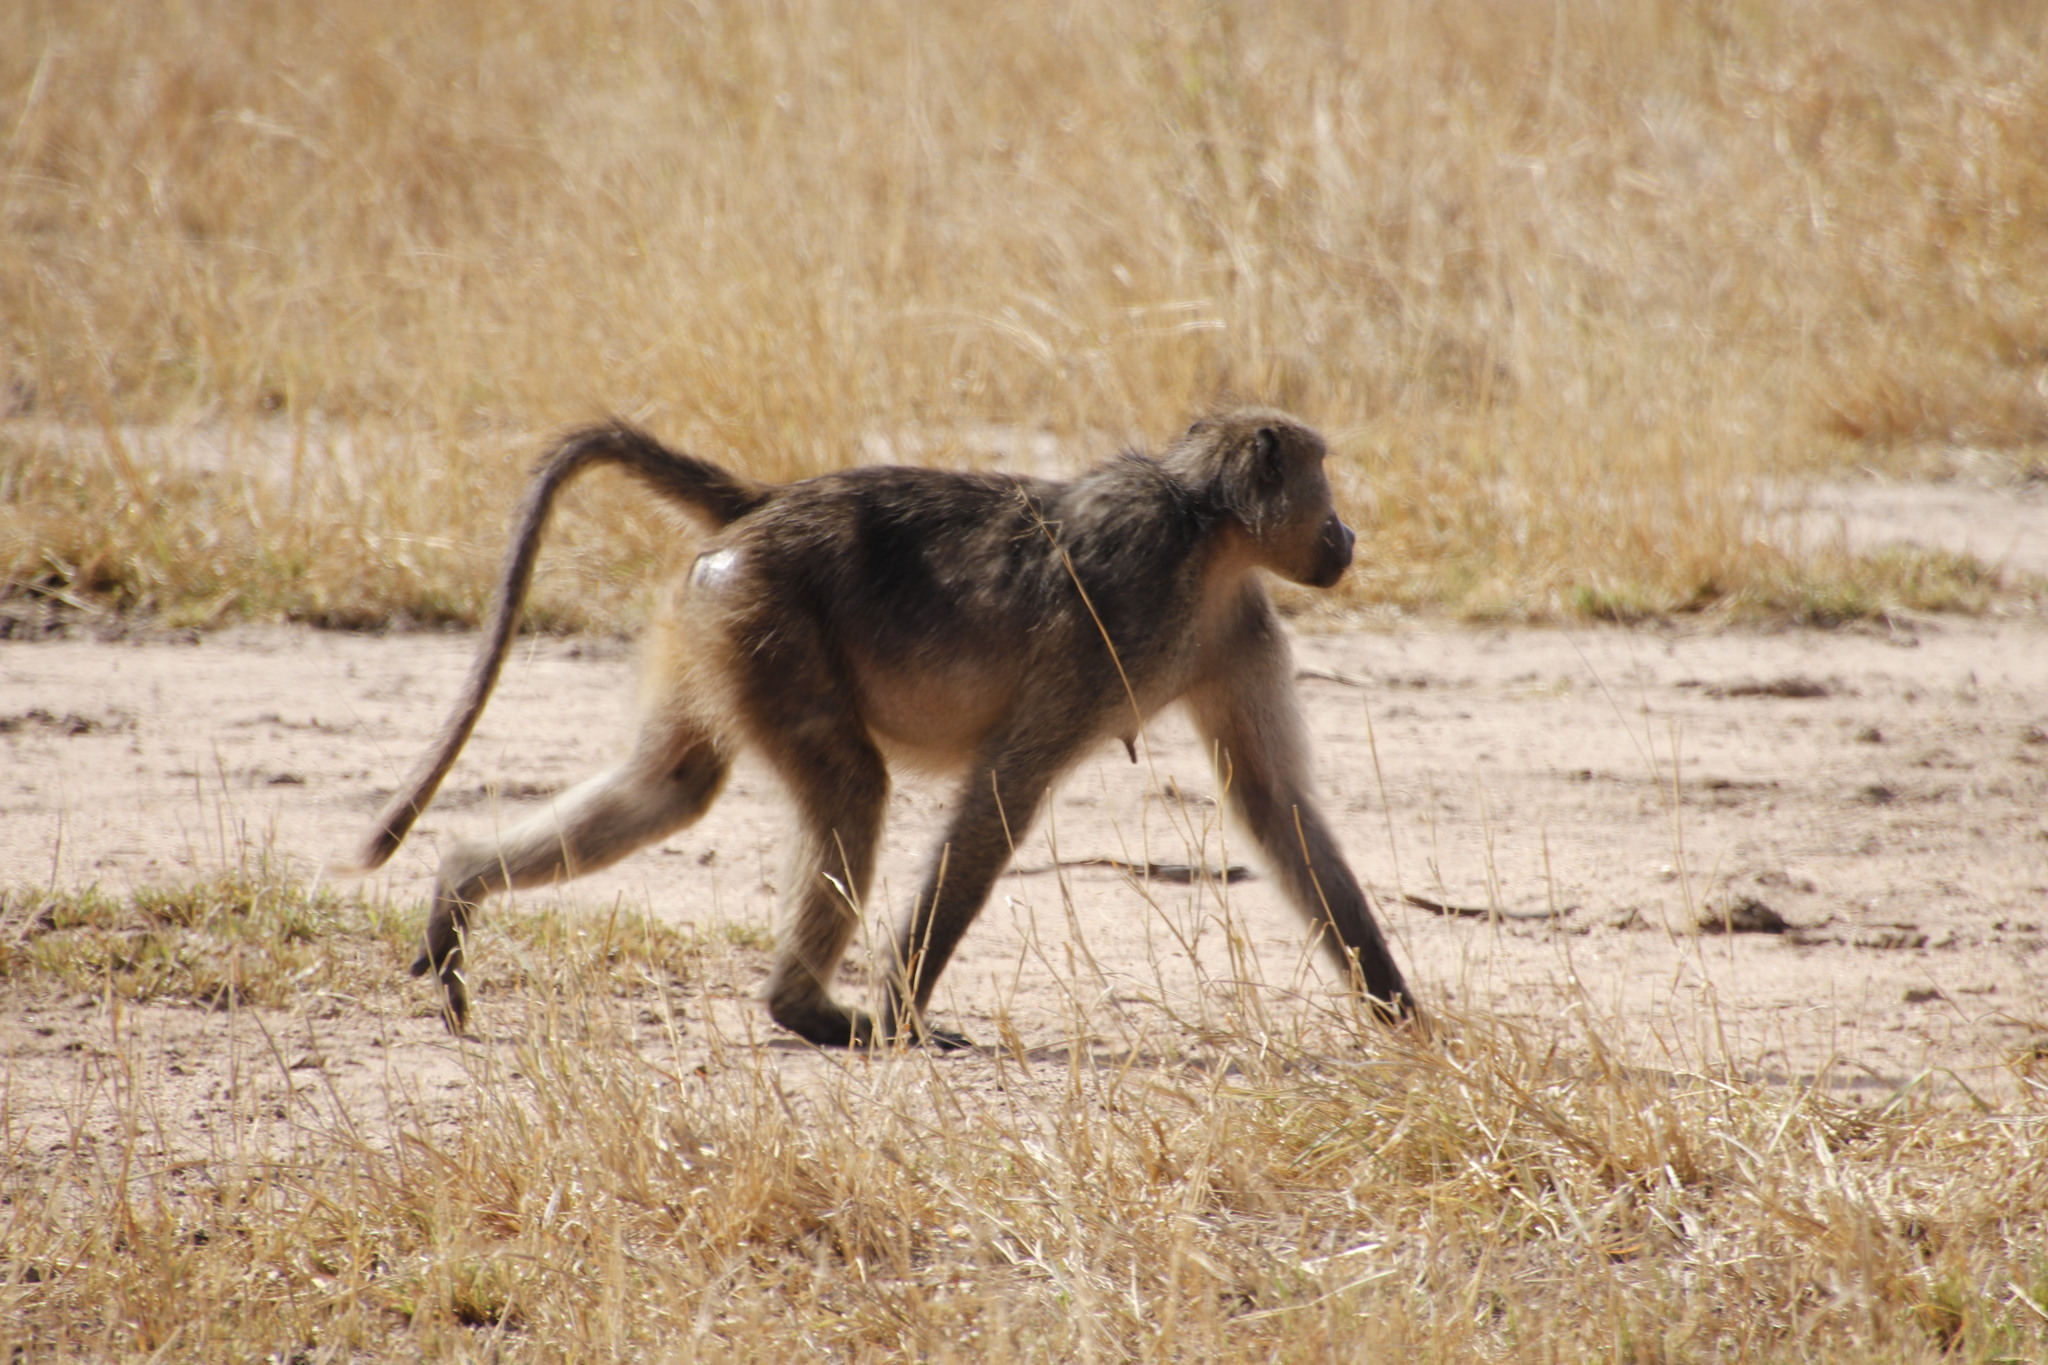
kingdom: Animalia
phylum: Chordata
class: Mammalia
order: Primates
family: Cercopithecidae
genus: Papio
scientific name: Papio ursinus
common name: Chacma baboon
